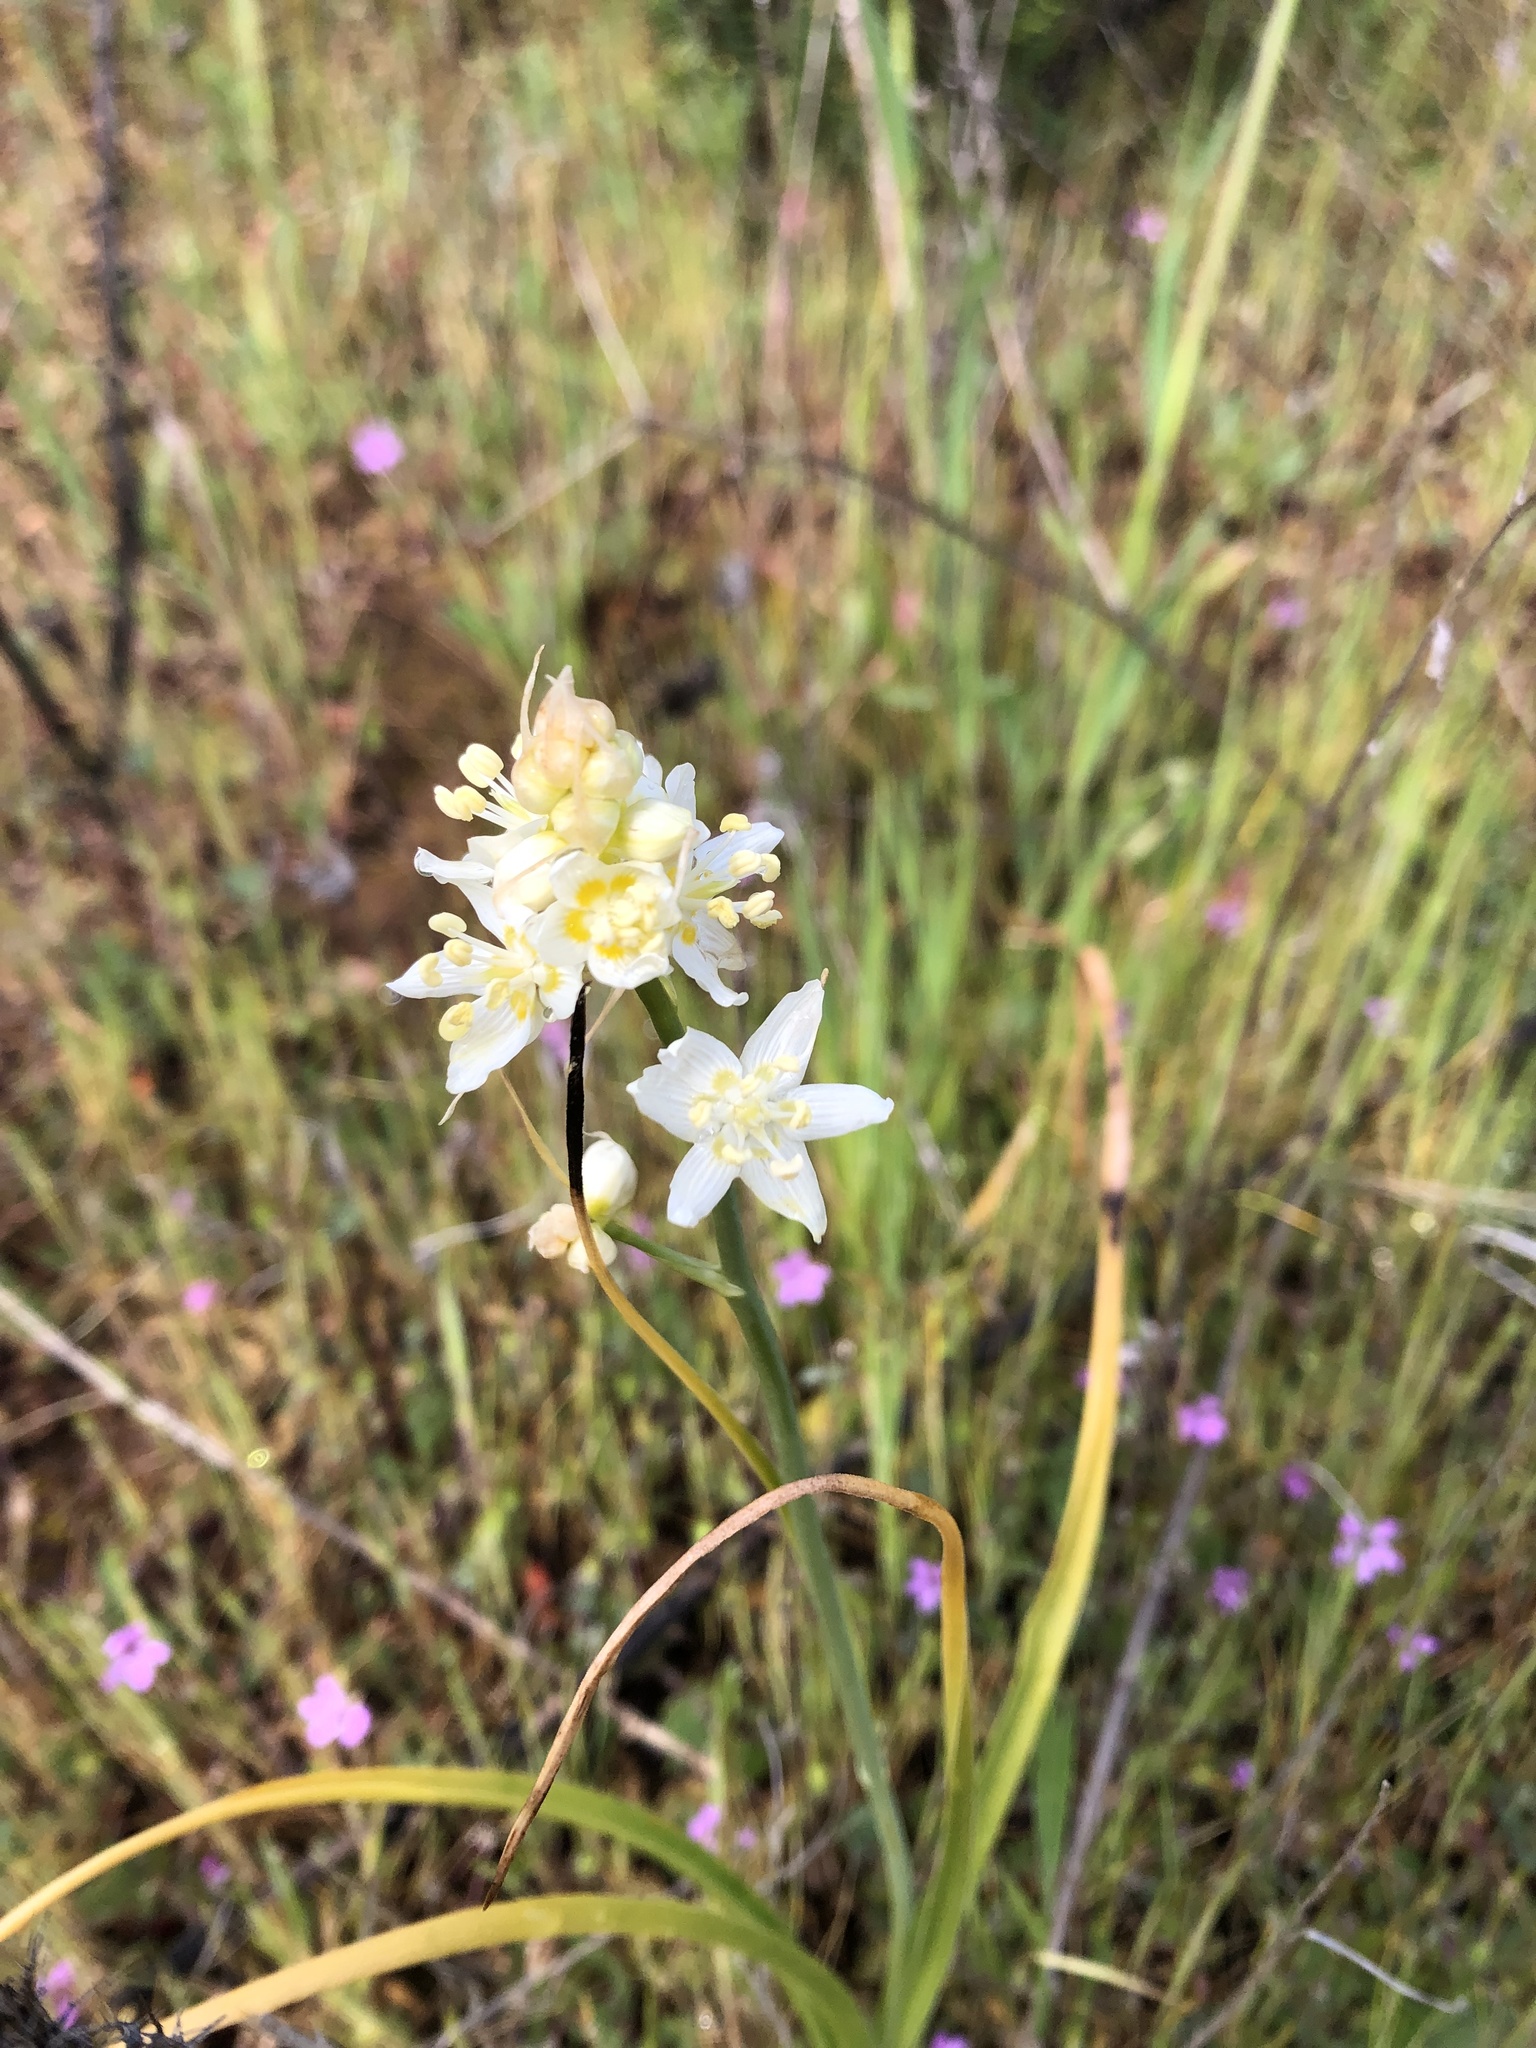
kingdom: Plantae
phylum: Tracheophyta
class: Liliopsida
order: Liliales
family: Melanthiaceae
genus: Toxicoscordion
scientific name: Toxicoscordion fremontii
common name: Fremont's death camas
